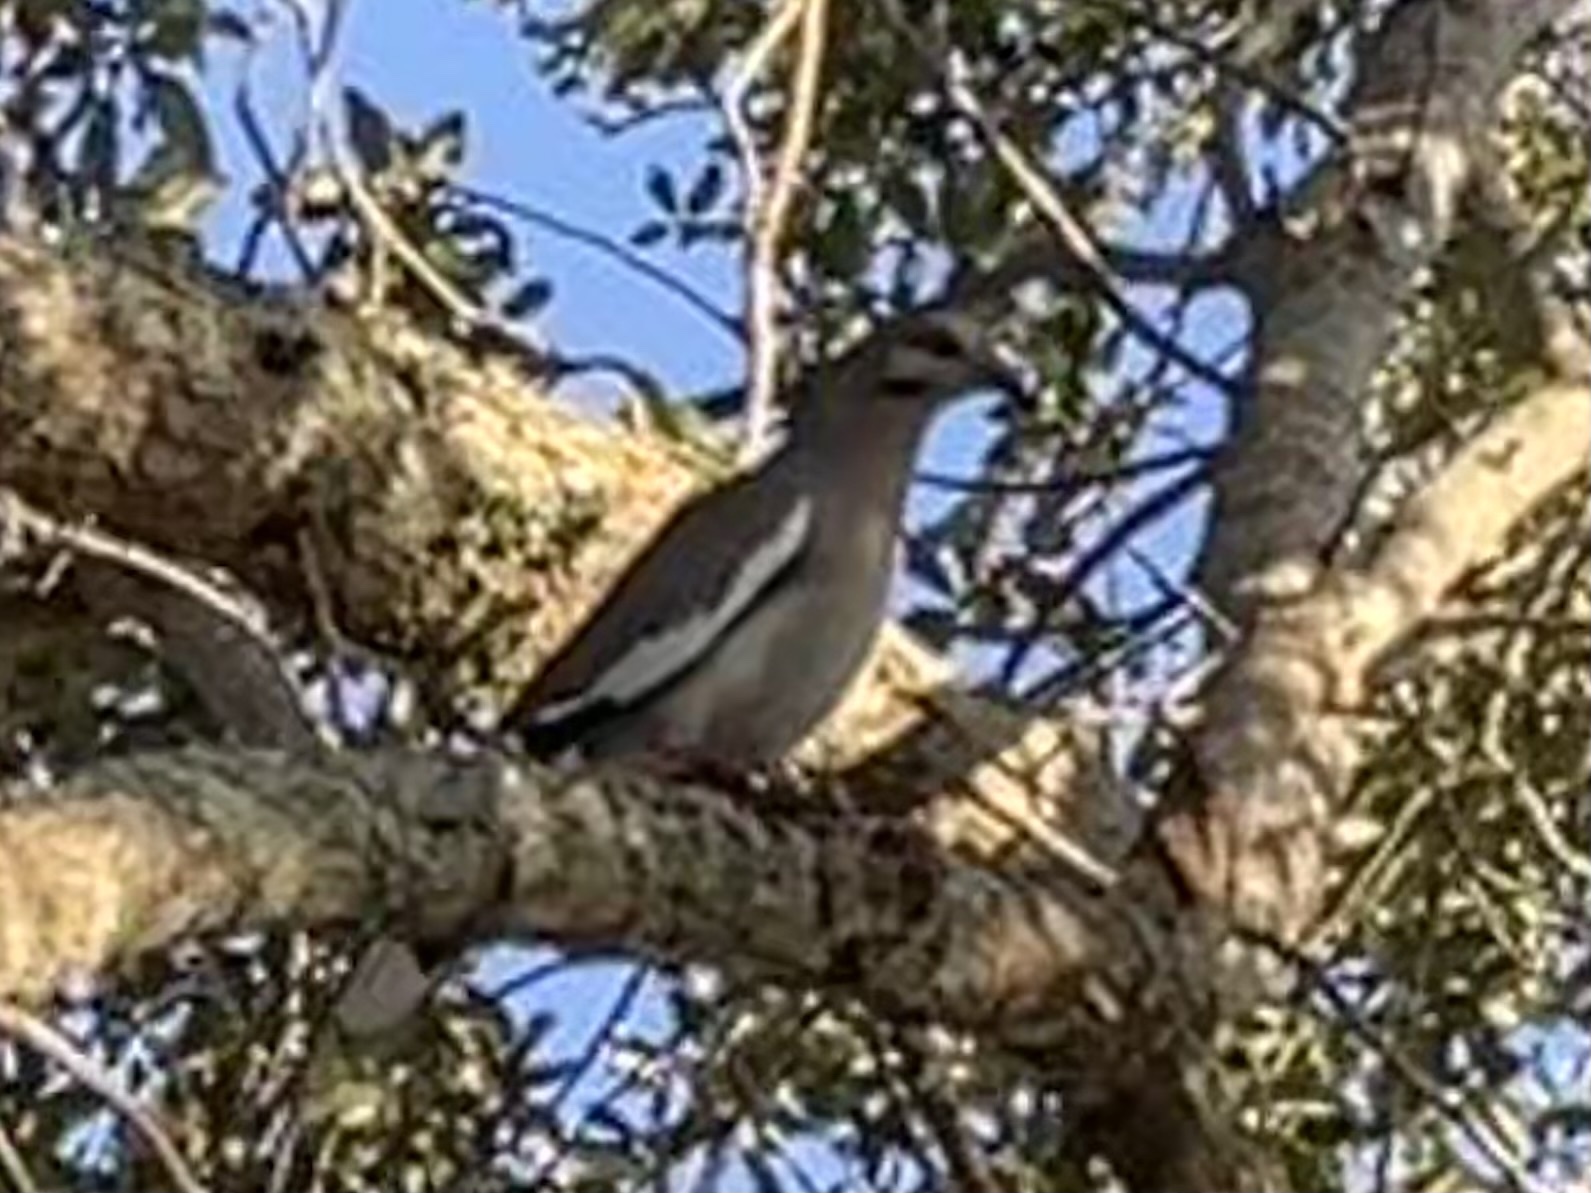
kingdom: Animalia
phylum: Chordata
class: Aves
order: Columbiformes
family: Columbidae
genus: Zenaida
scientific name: Zenaida asiatica
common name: White-winged dove
